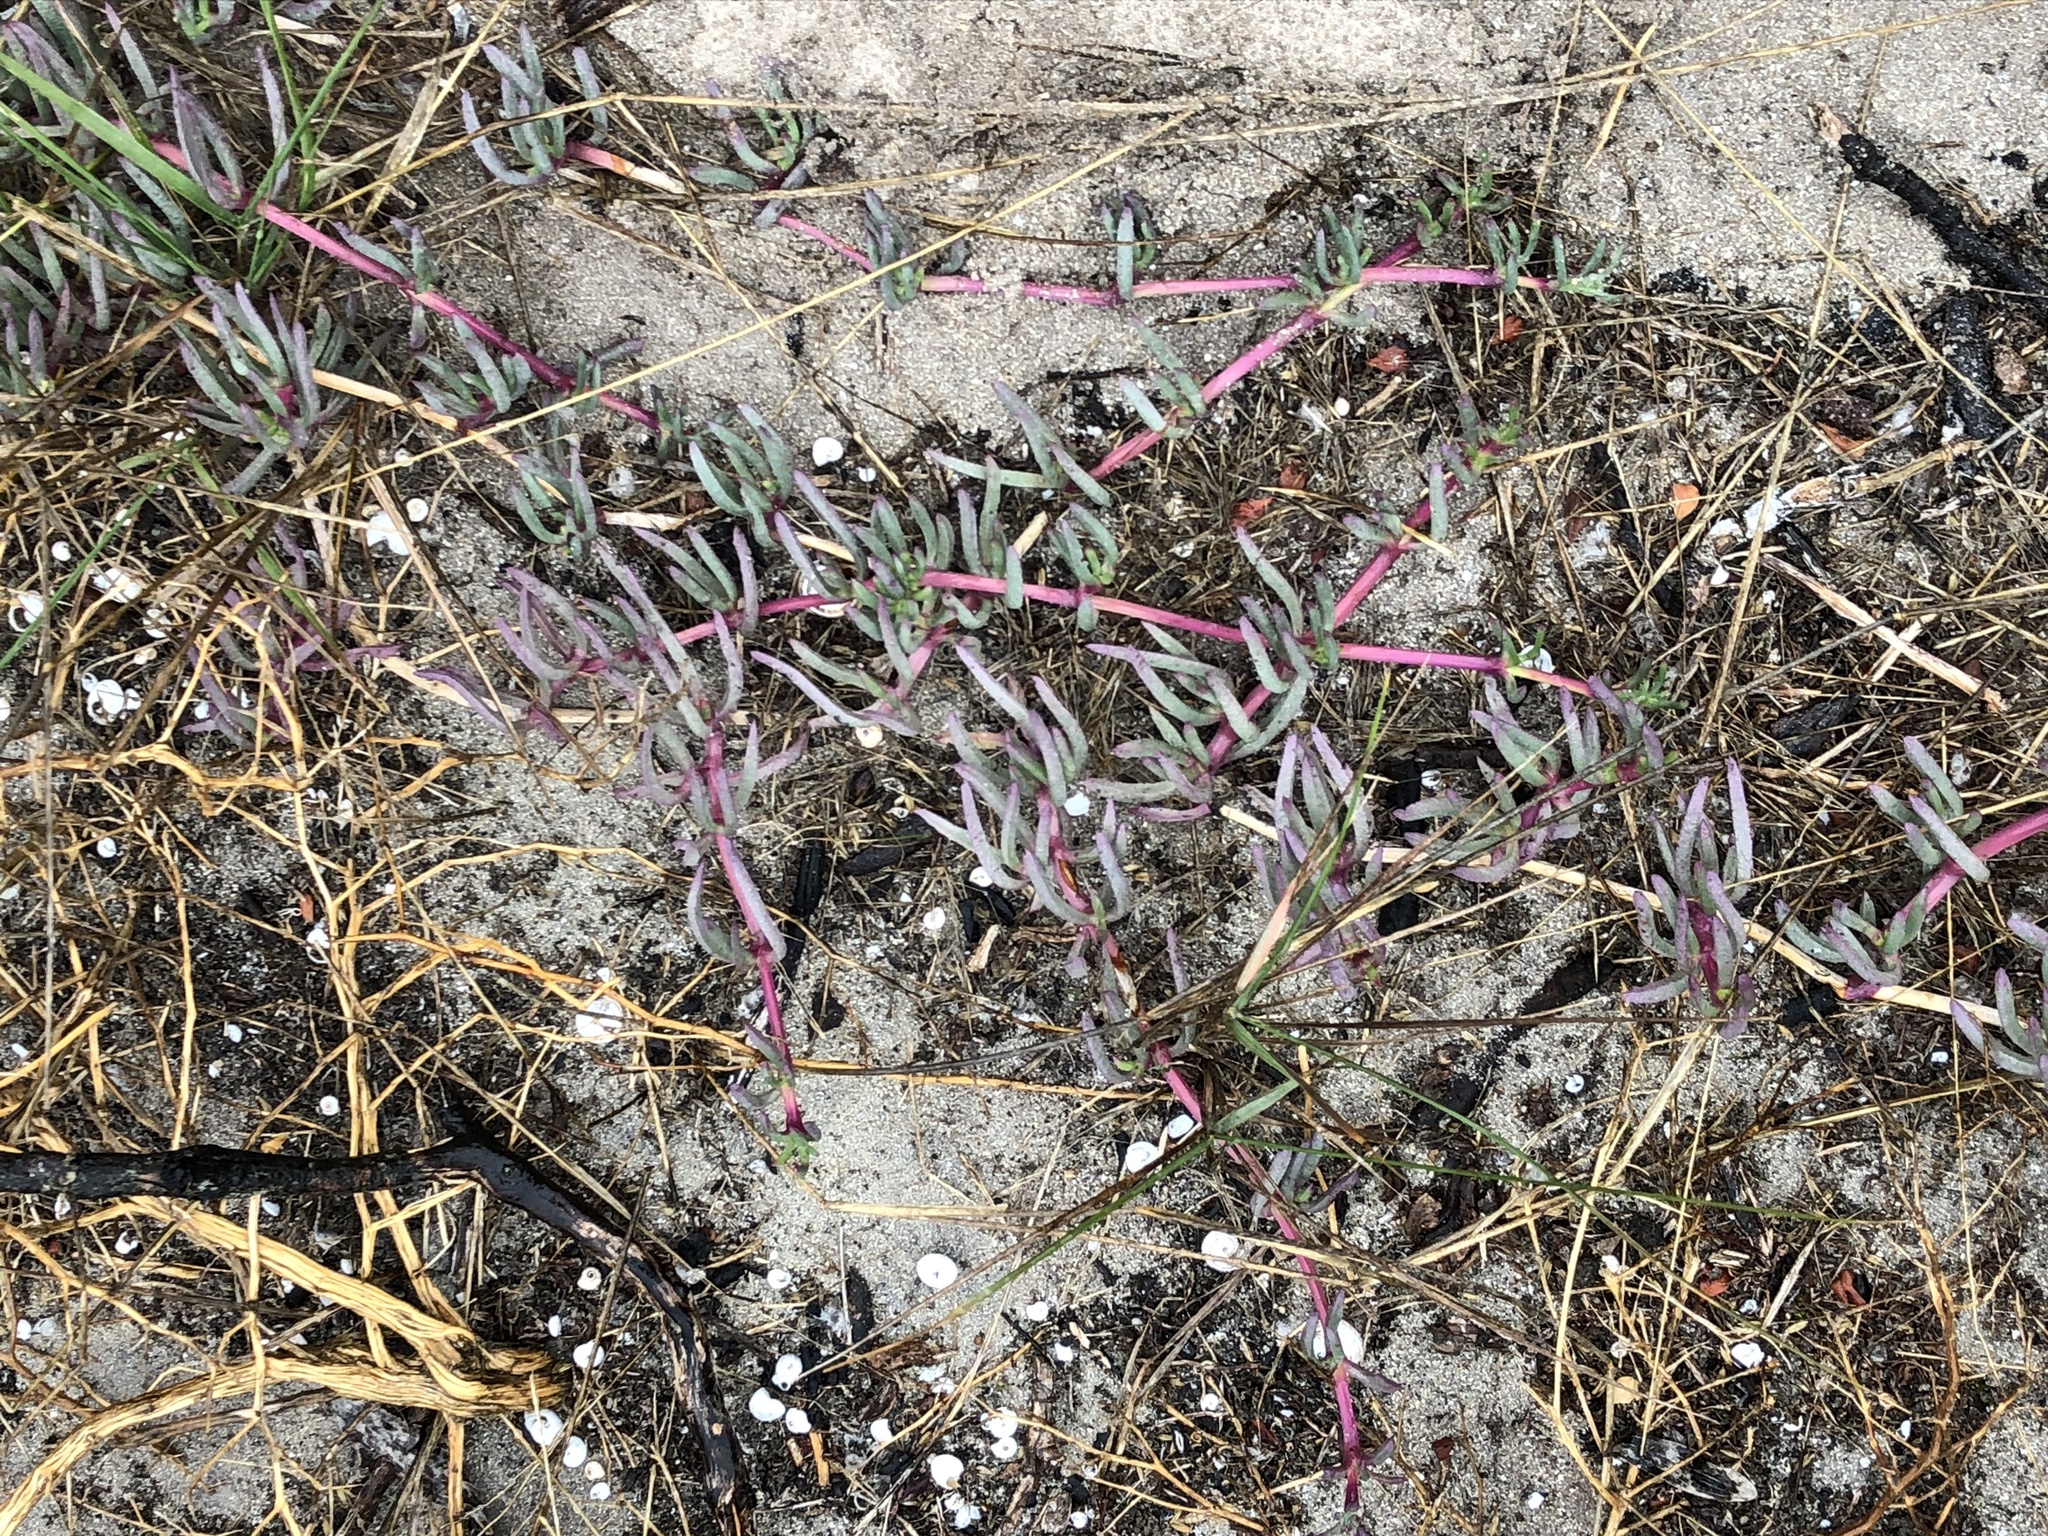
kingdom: Plantae
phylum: Tracheophyta
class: Magnoliopsida
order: Caryophyllales
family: Aizoaceae
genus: Jordaaniella
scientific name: Jordaaniella dubia
